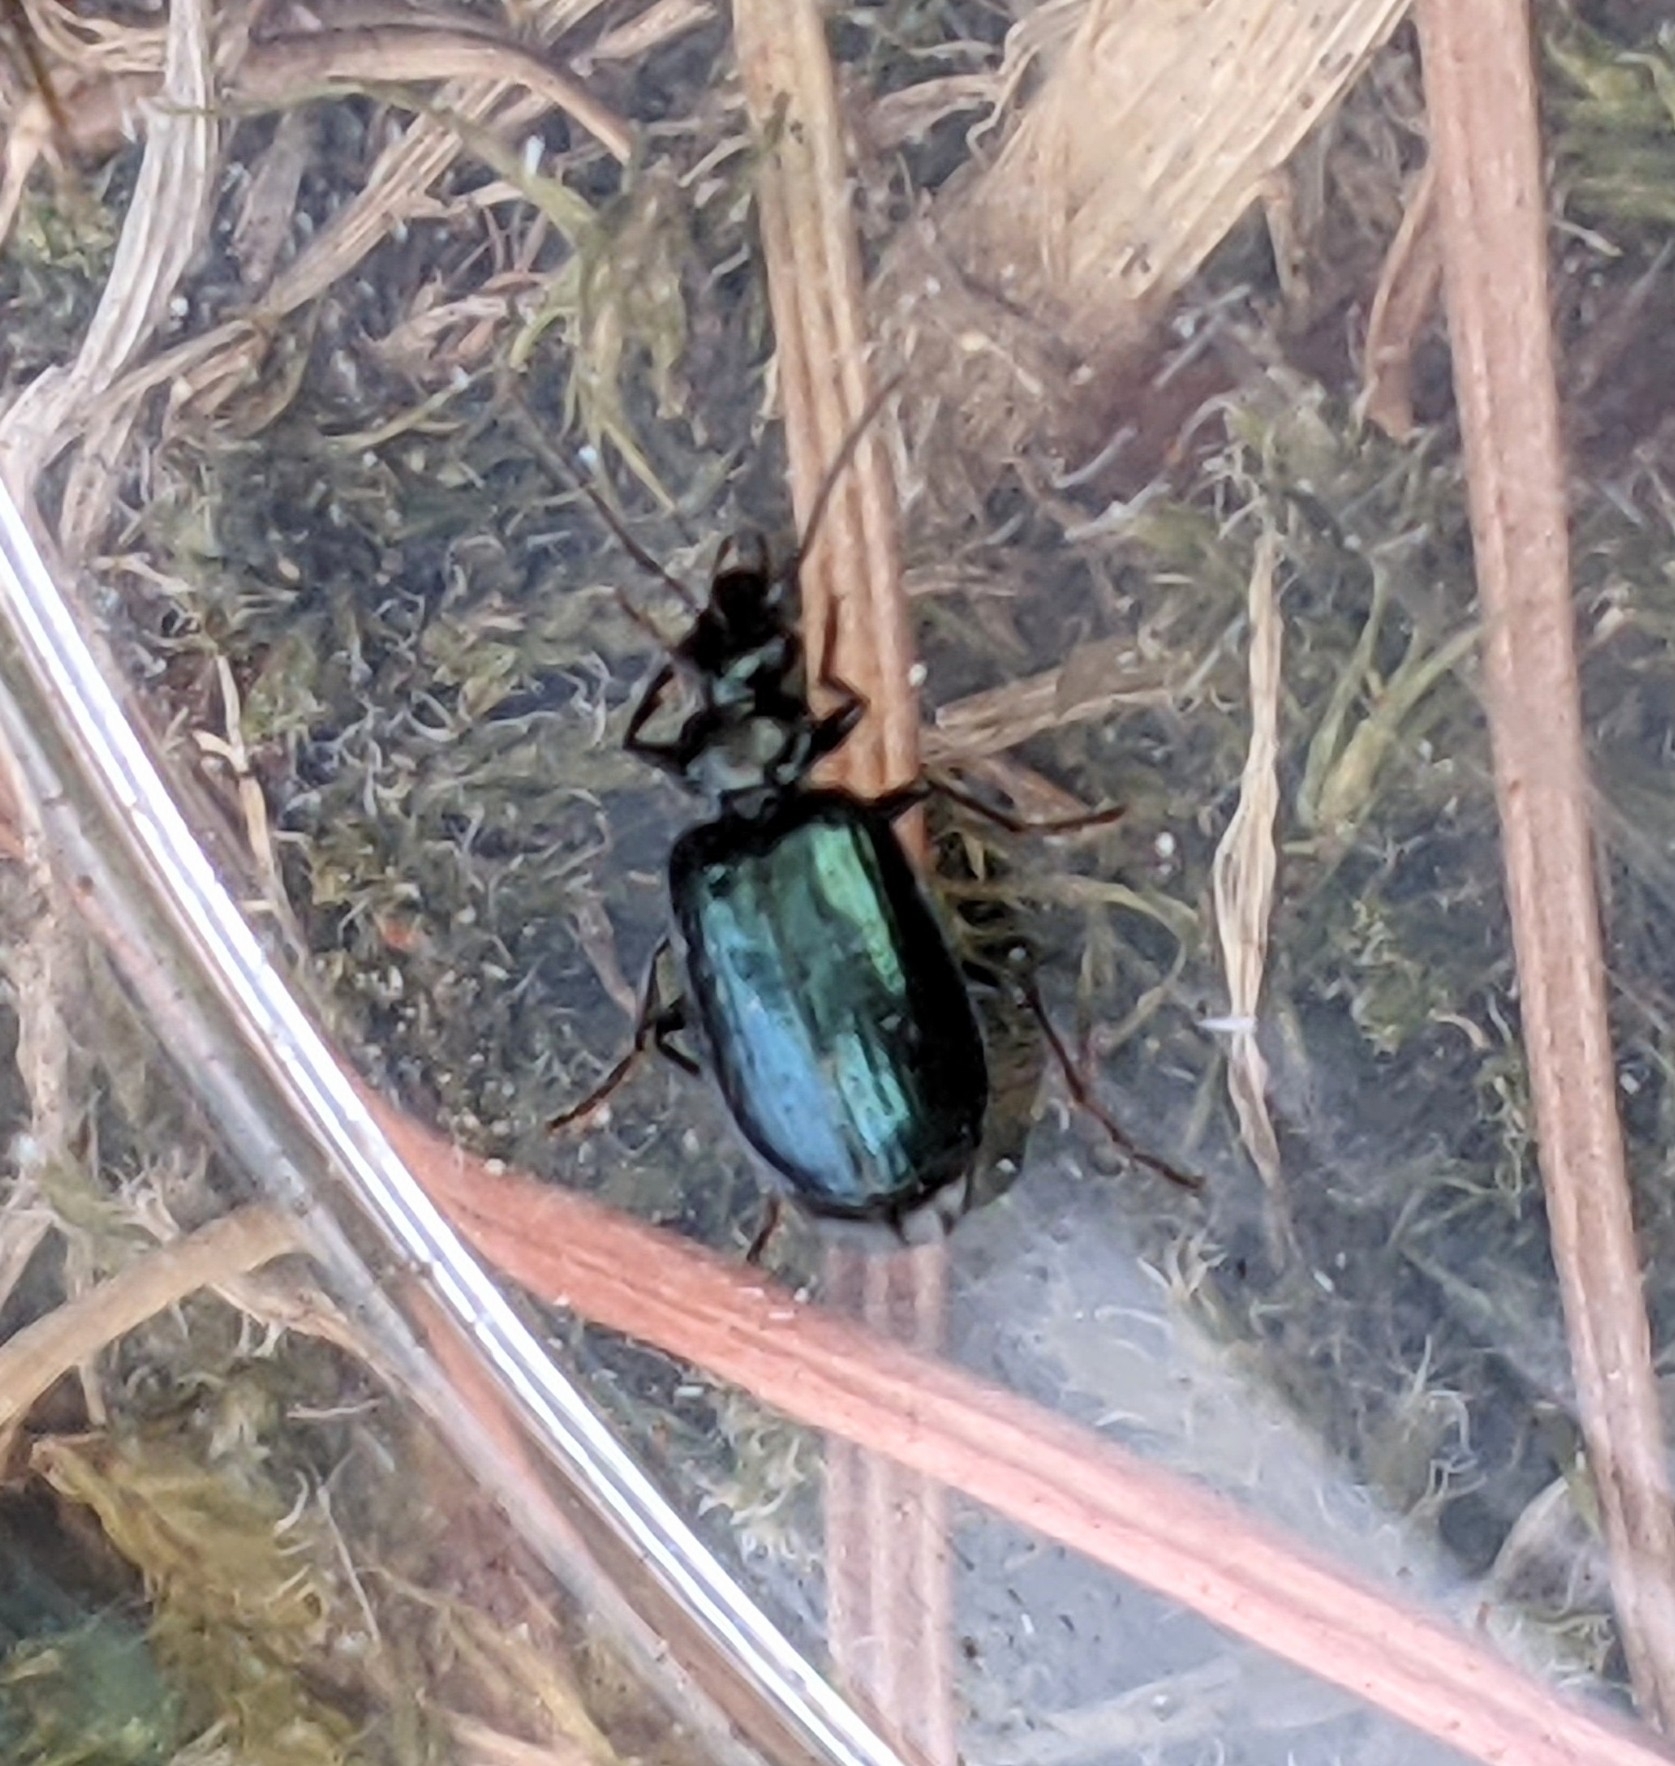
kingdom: Animalia
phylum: Arthropoda
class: Insecta
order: Coleoptera
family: Carabidae
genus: Lebia
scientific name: Lebia viridis
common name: Flower lebia beetle
